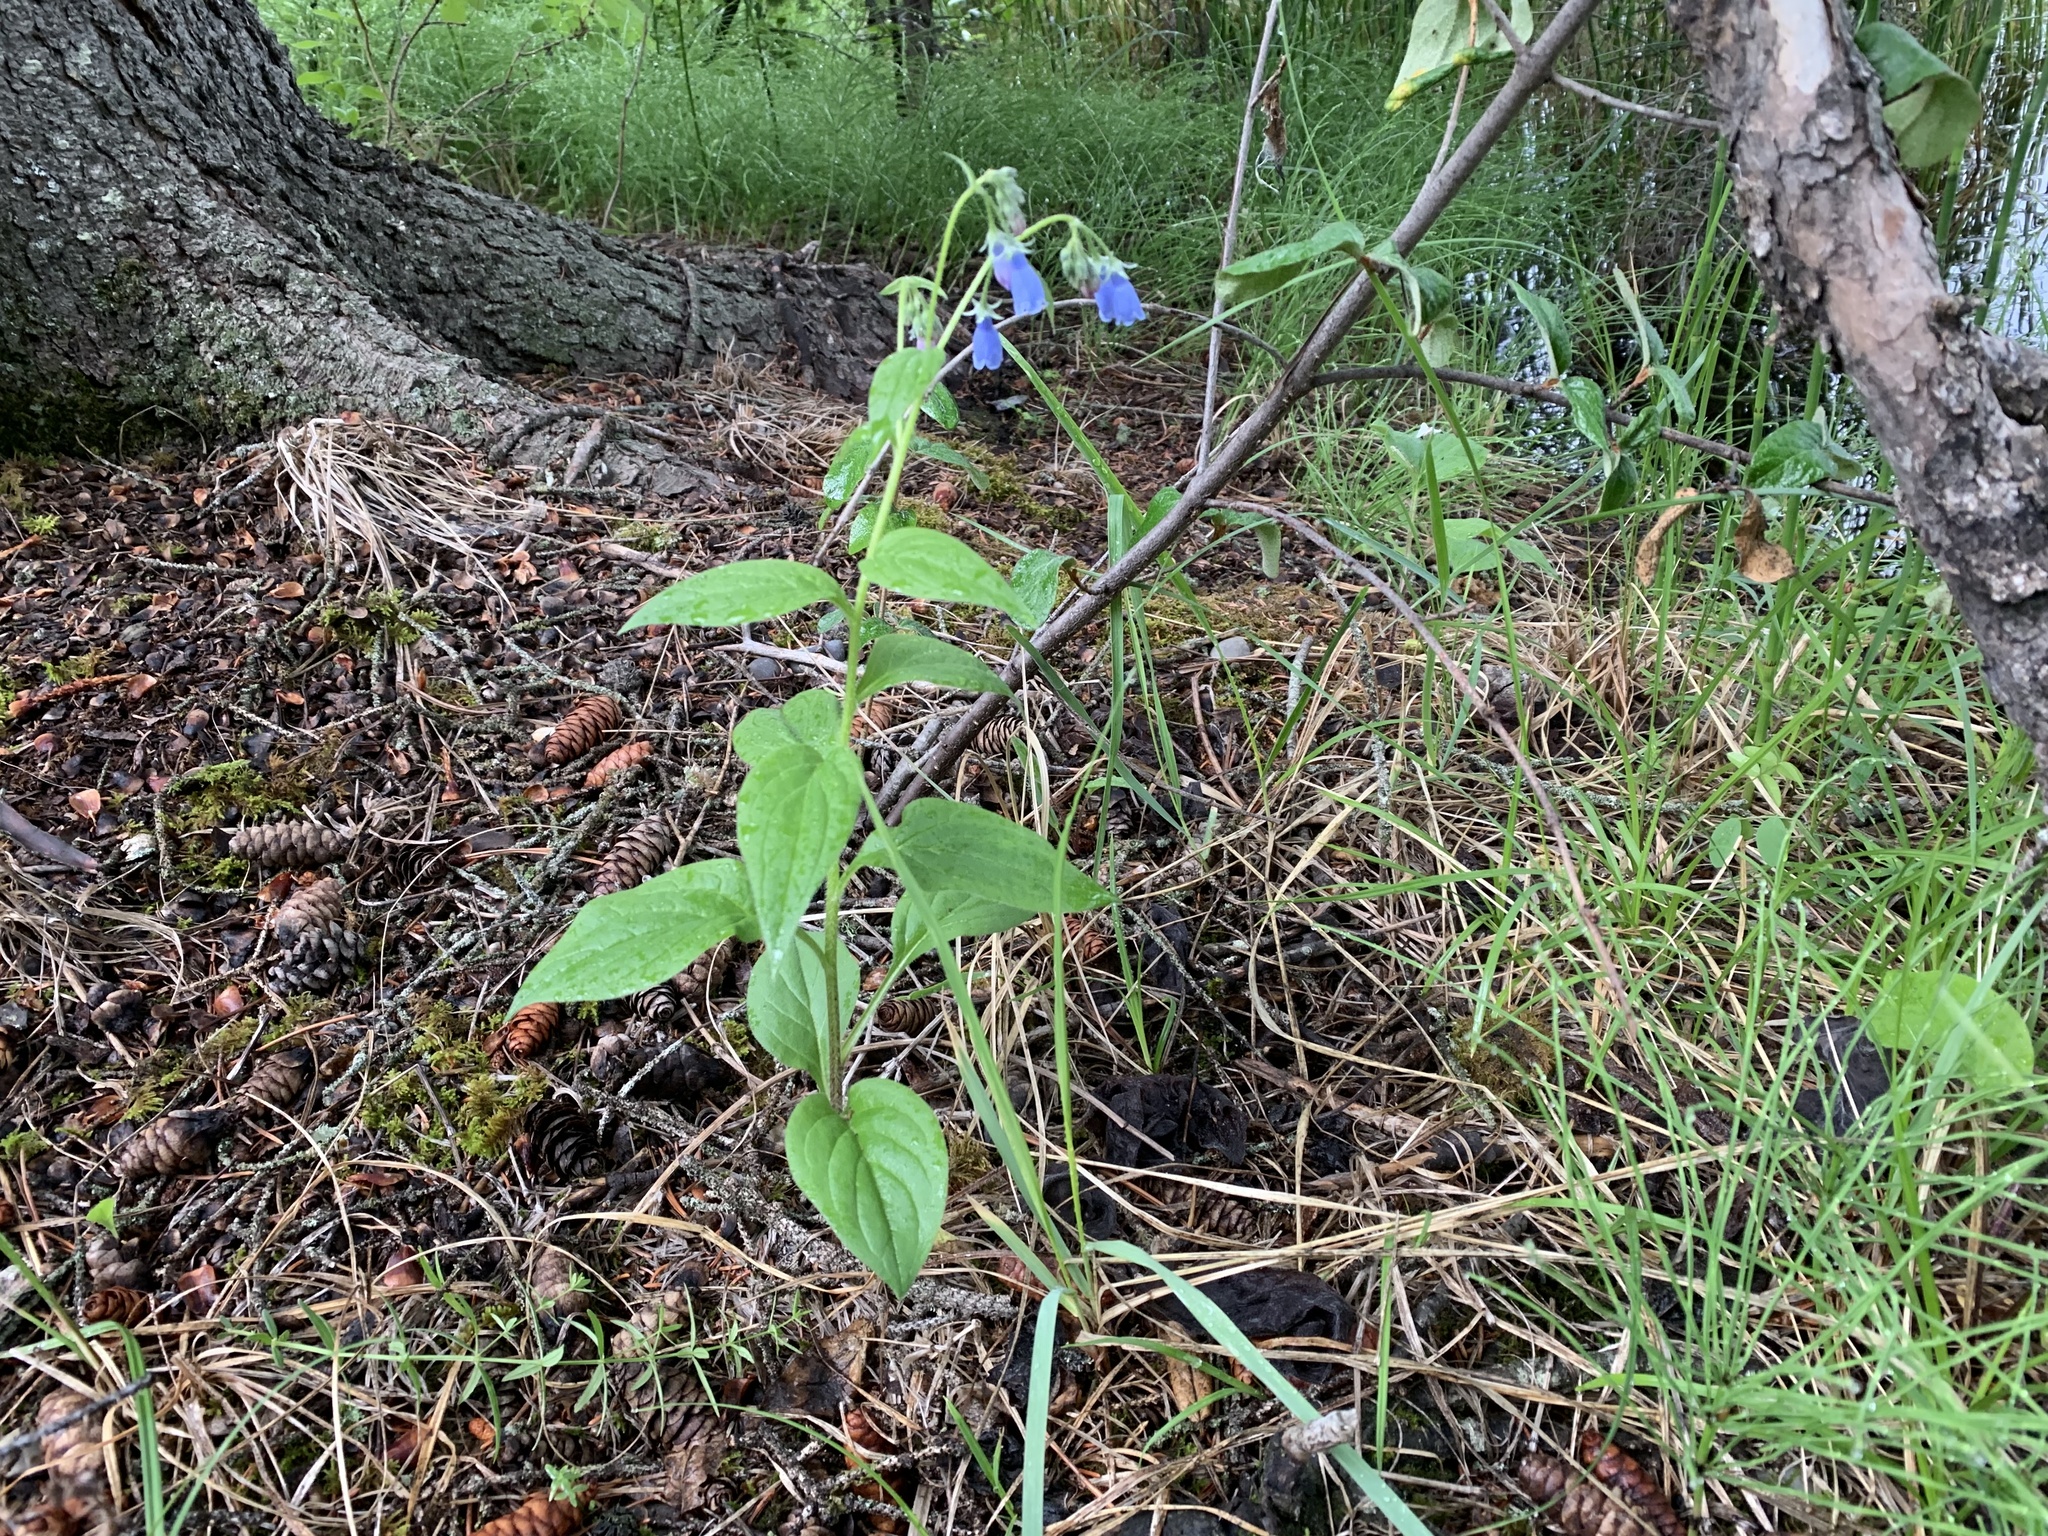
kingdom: Plantae
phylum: Tracheophyta
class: Magnoliopsida
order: Boraginales
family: Boraginaceae
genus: Mertensia
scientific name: Mertensia paniculata
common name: Panicled bluebells
